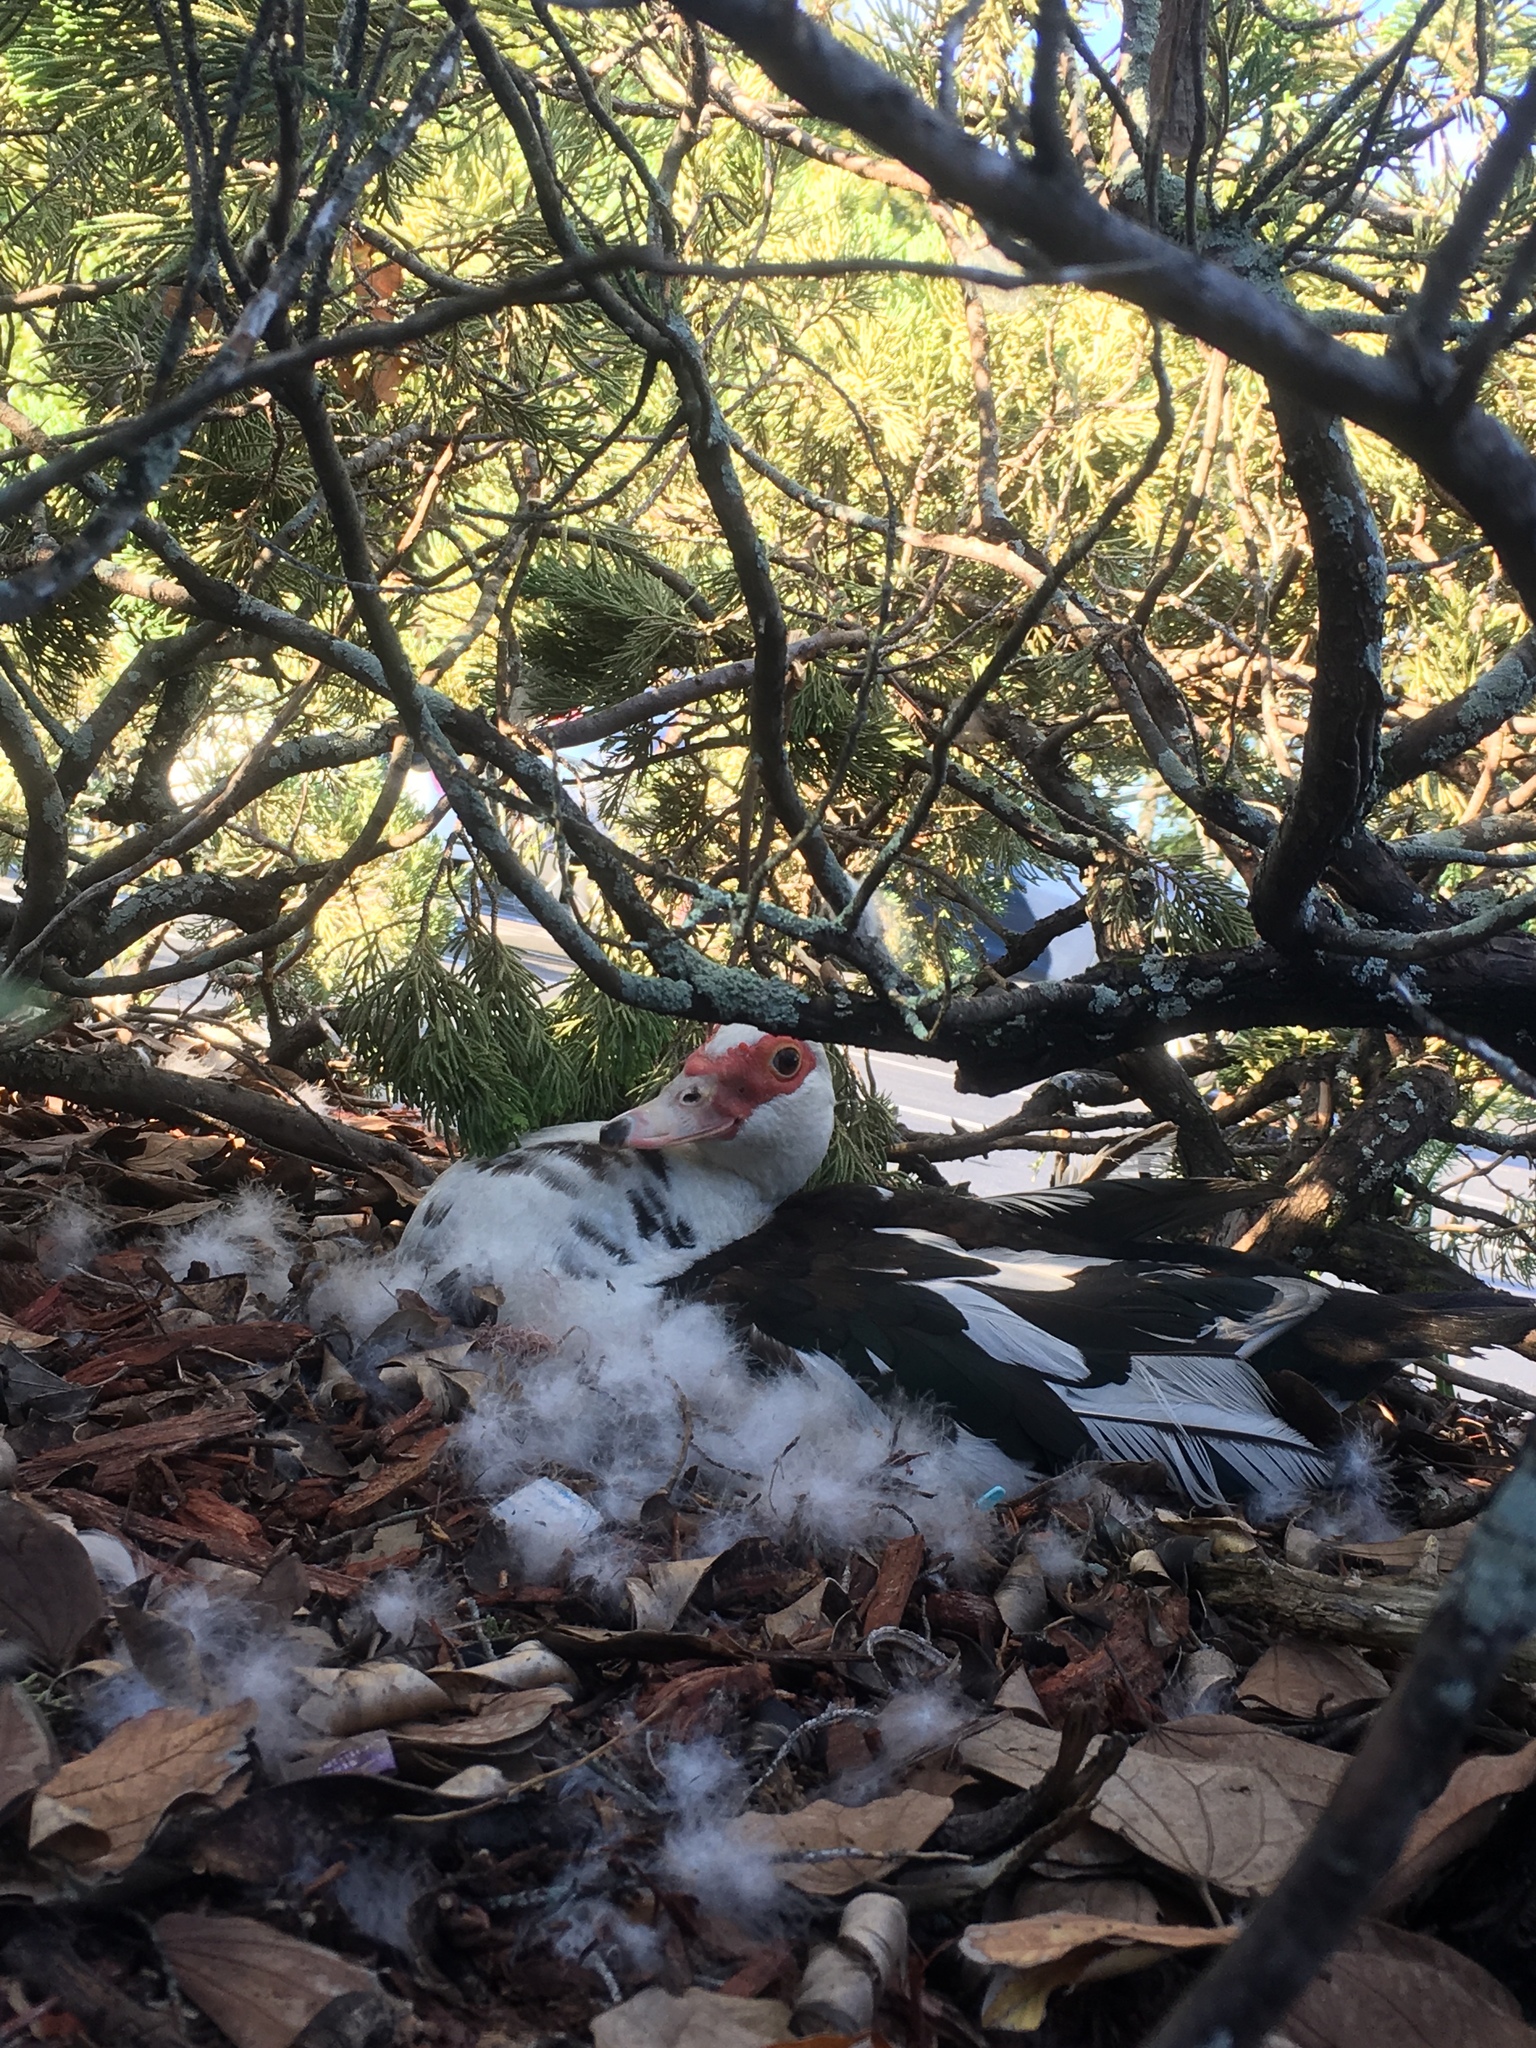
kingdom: Animalia
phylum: Chordata
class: Aves
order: Anseriformes
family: Anatidae
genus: Cairina
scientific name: Cairina moschata
